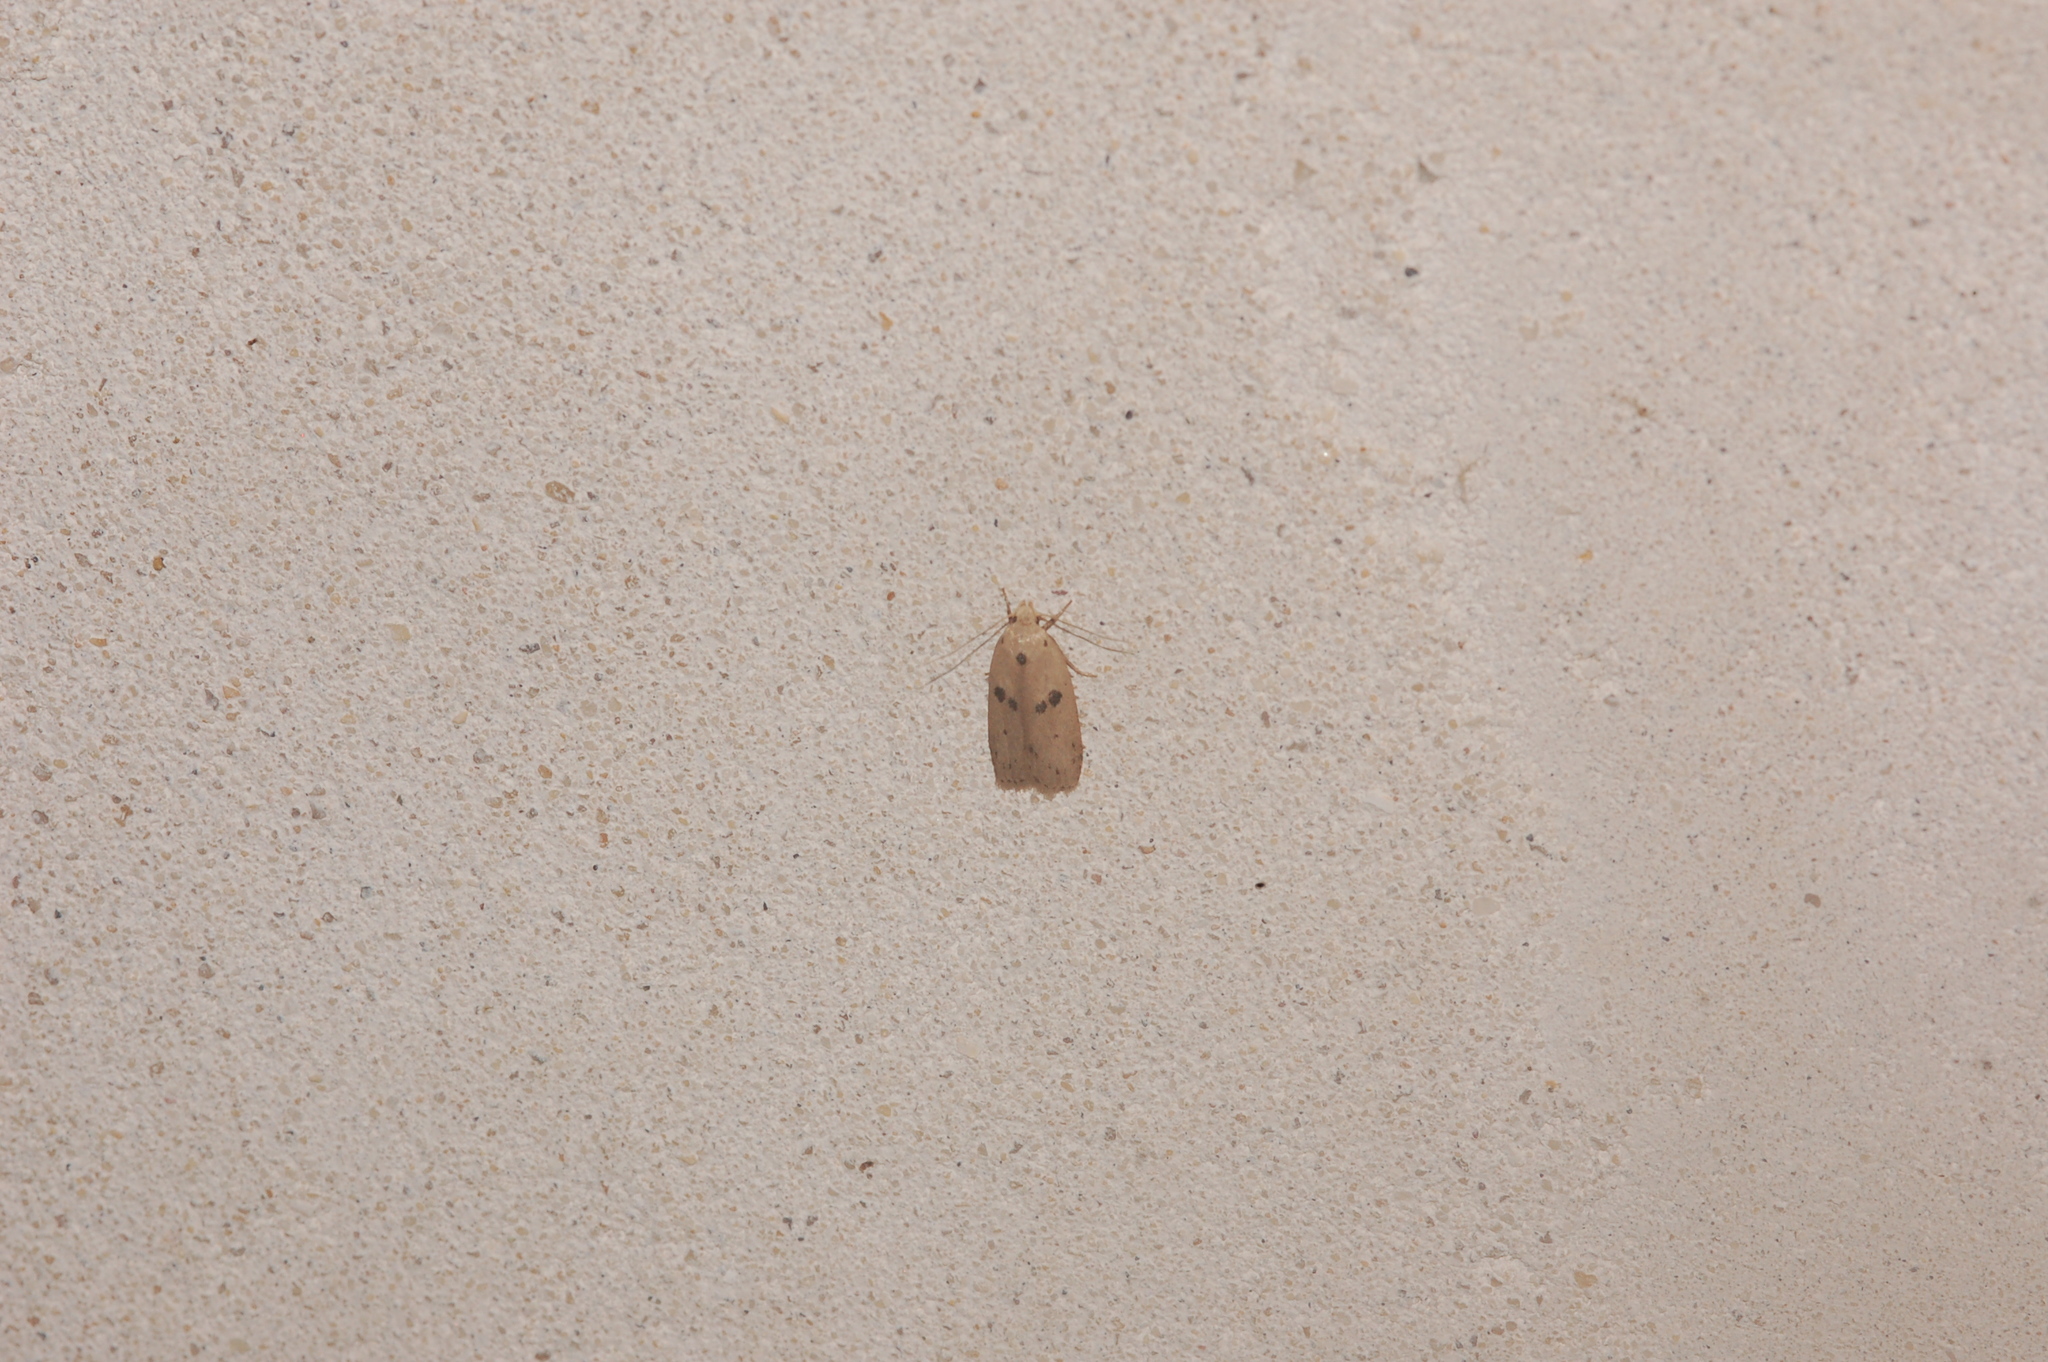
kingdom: Animalia
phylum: Arthropoda
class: Insecta
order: Lepidoptera
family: Peleopodidae
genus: Scythropiodes
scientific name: Scythropiodes issikii
